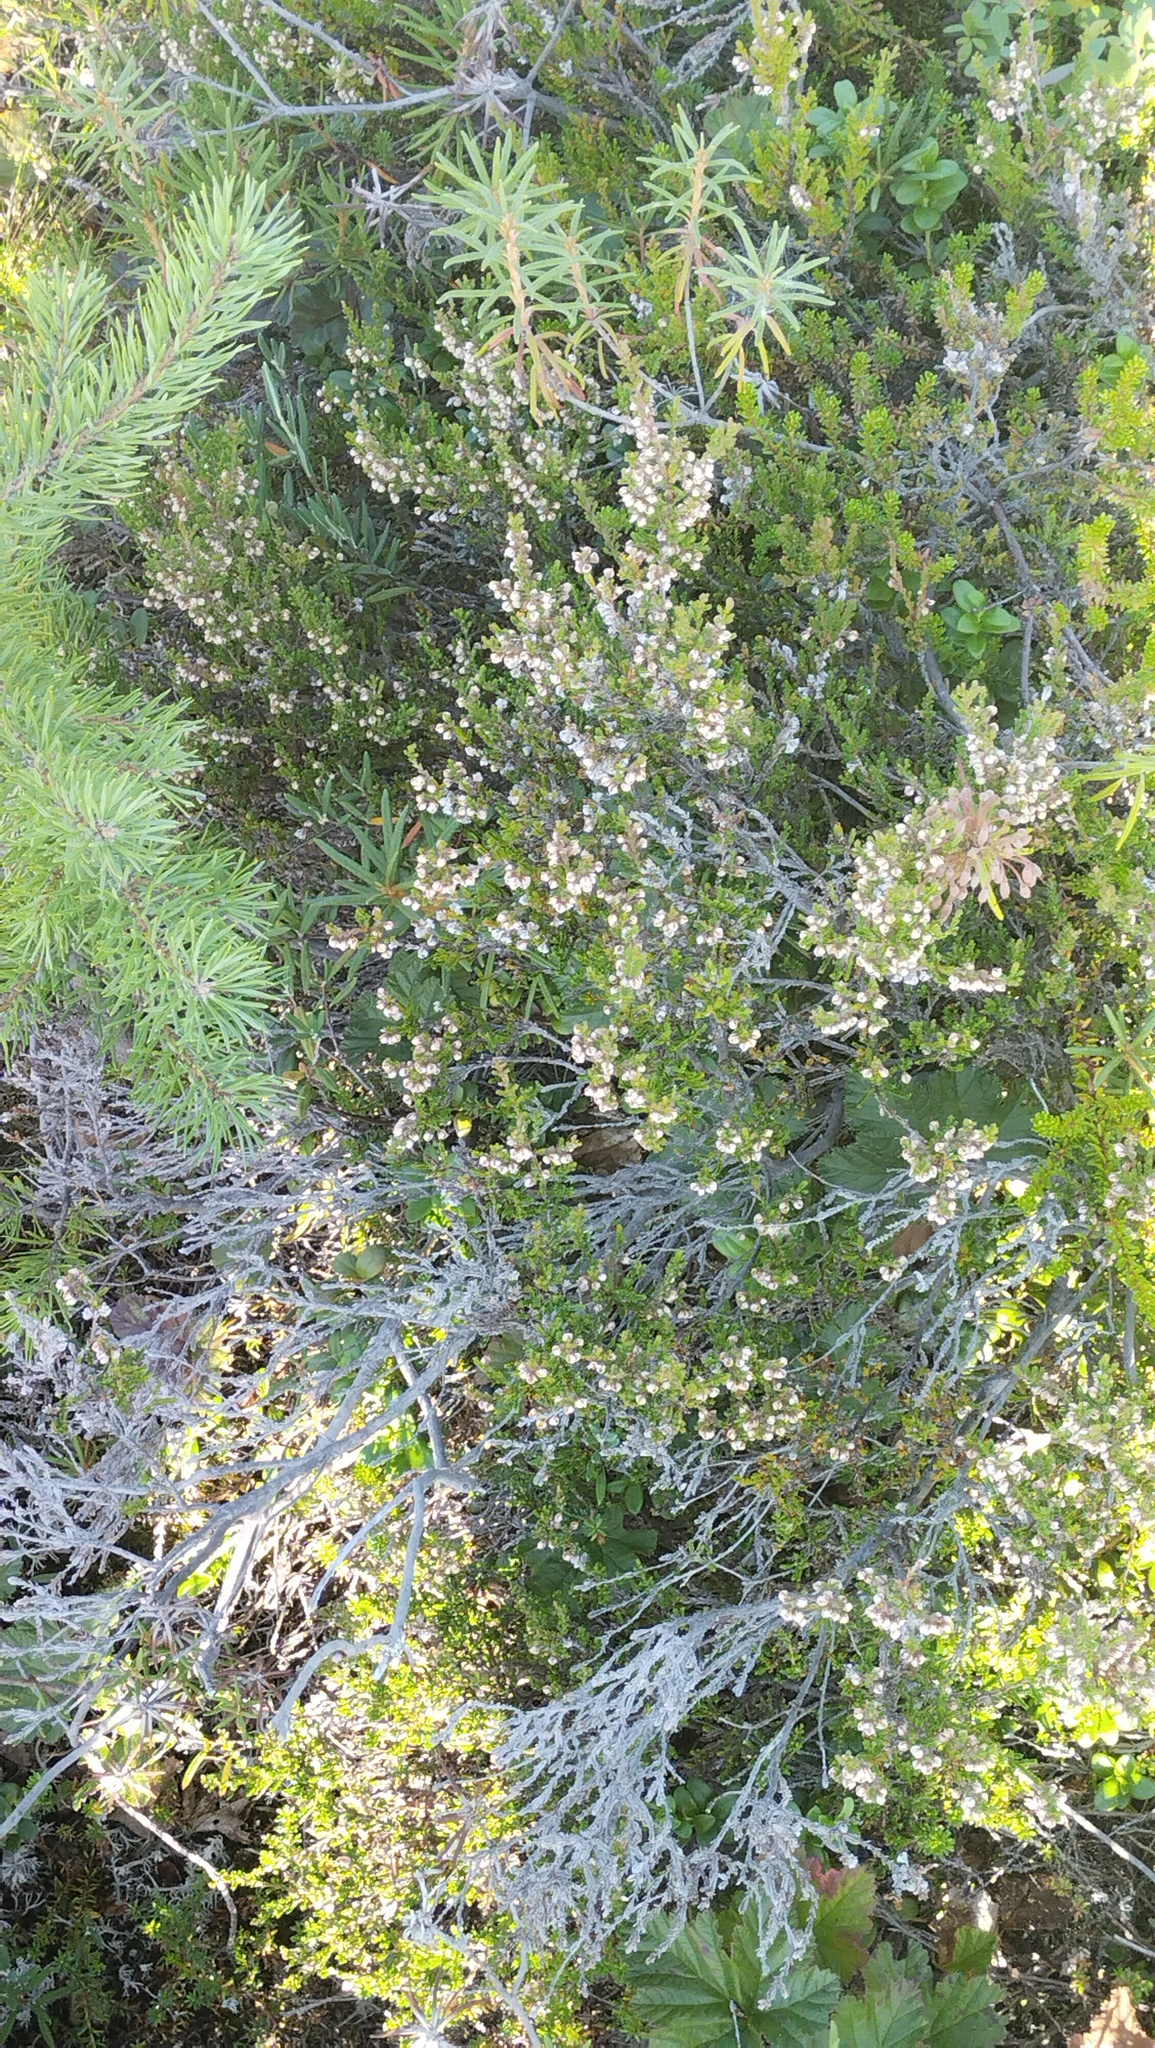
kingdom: Plantae
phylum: Tracheophyta
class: Magnoliopsida
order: Ericales
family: Ericaceae
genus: Calluna
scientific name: Calluna vulgaris
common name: Heather
